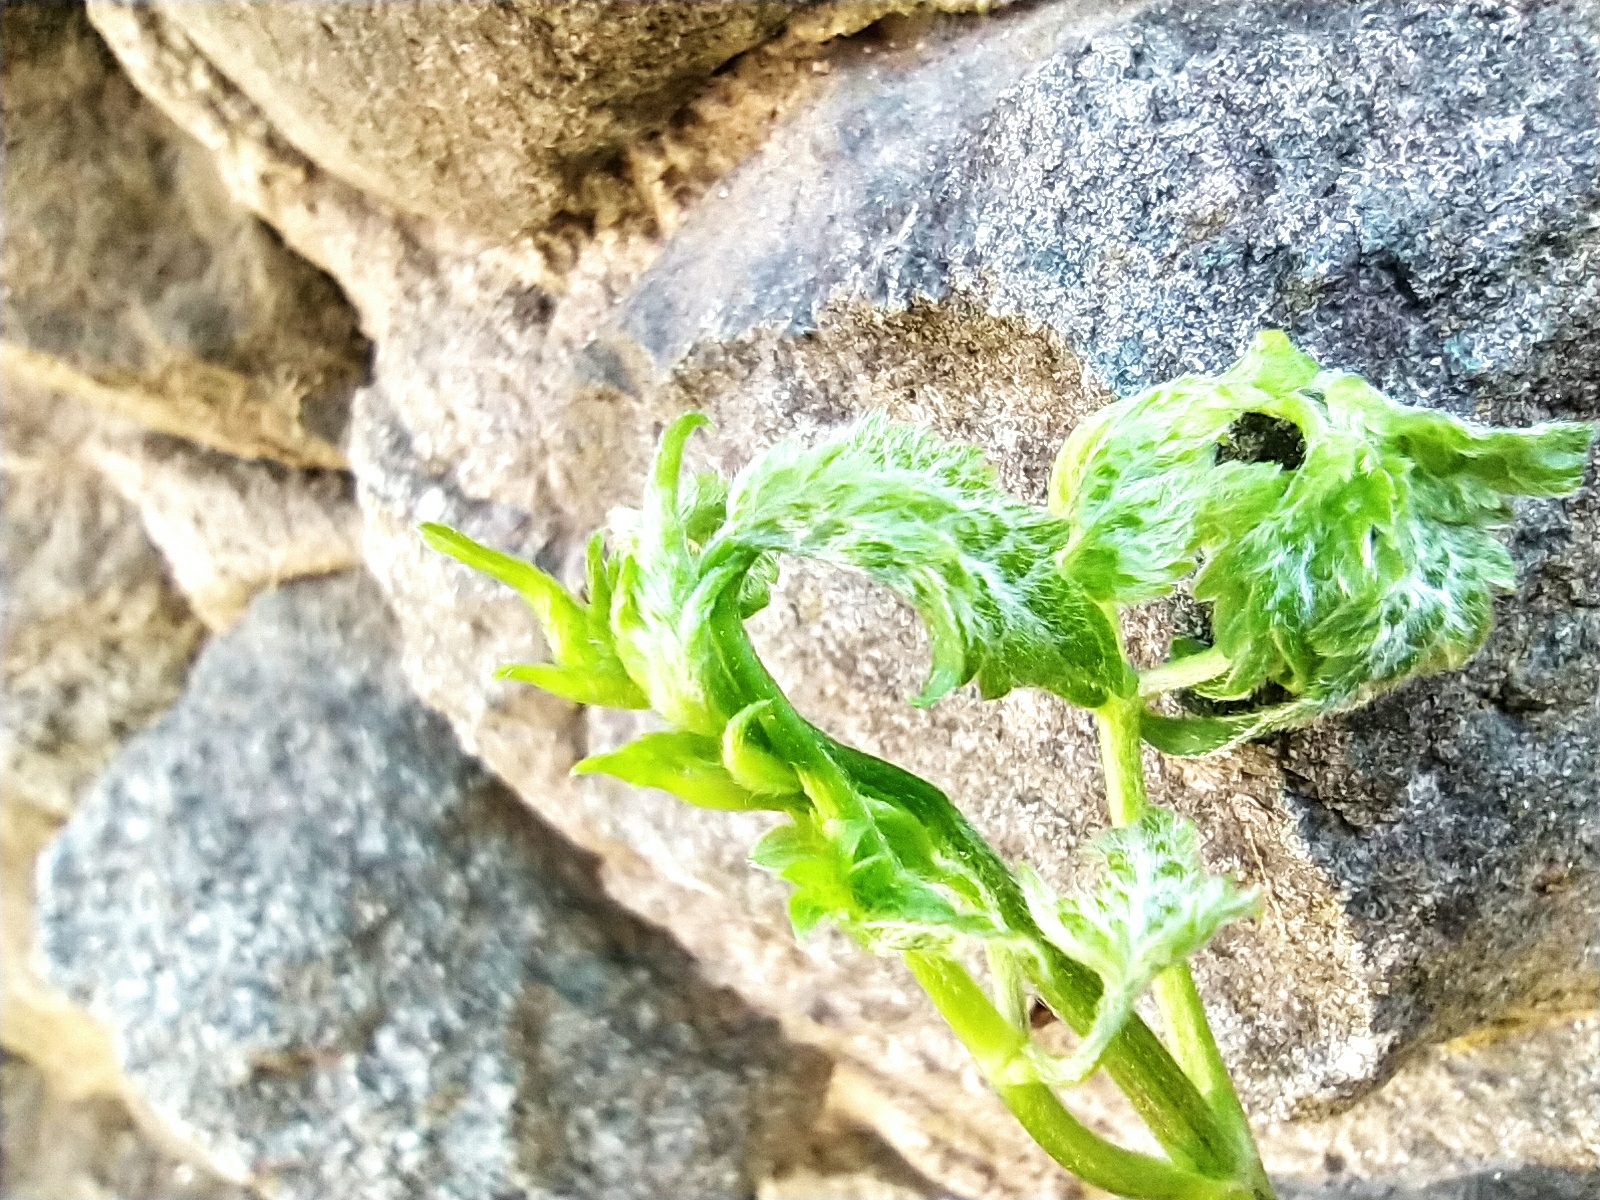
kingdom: Plantae
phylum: Tracheophyta
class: Magnoliopsida
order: Ranunculales
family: Ranunculaceae
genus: Clematis
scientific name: Clematis vitalba
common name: Evergreen clematis
